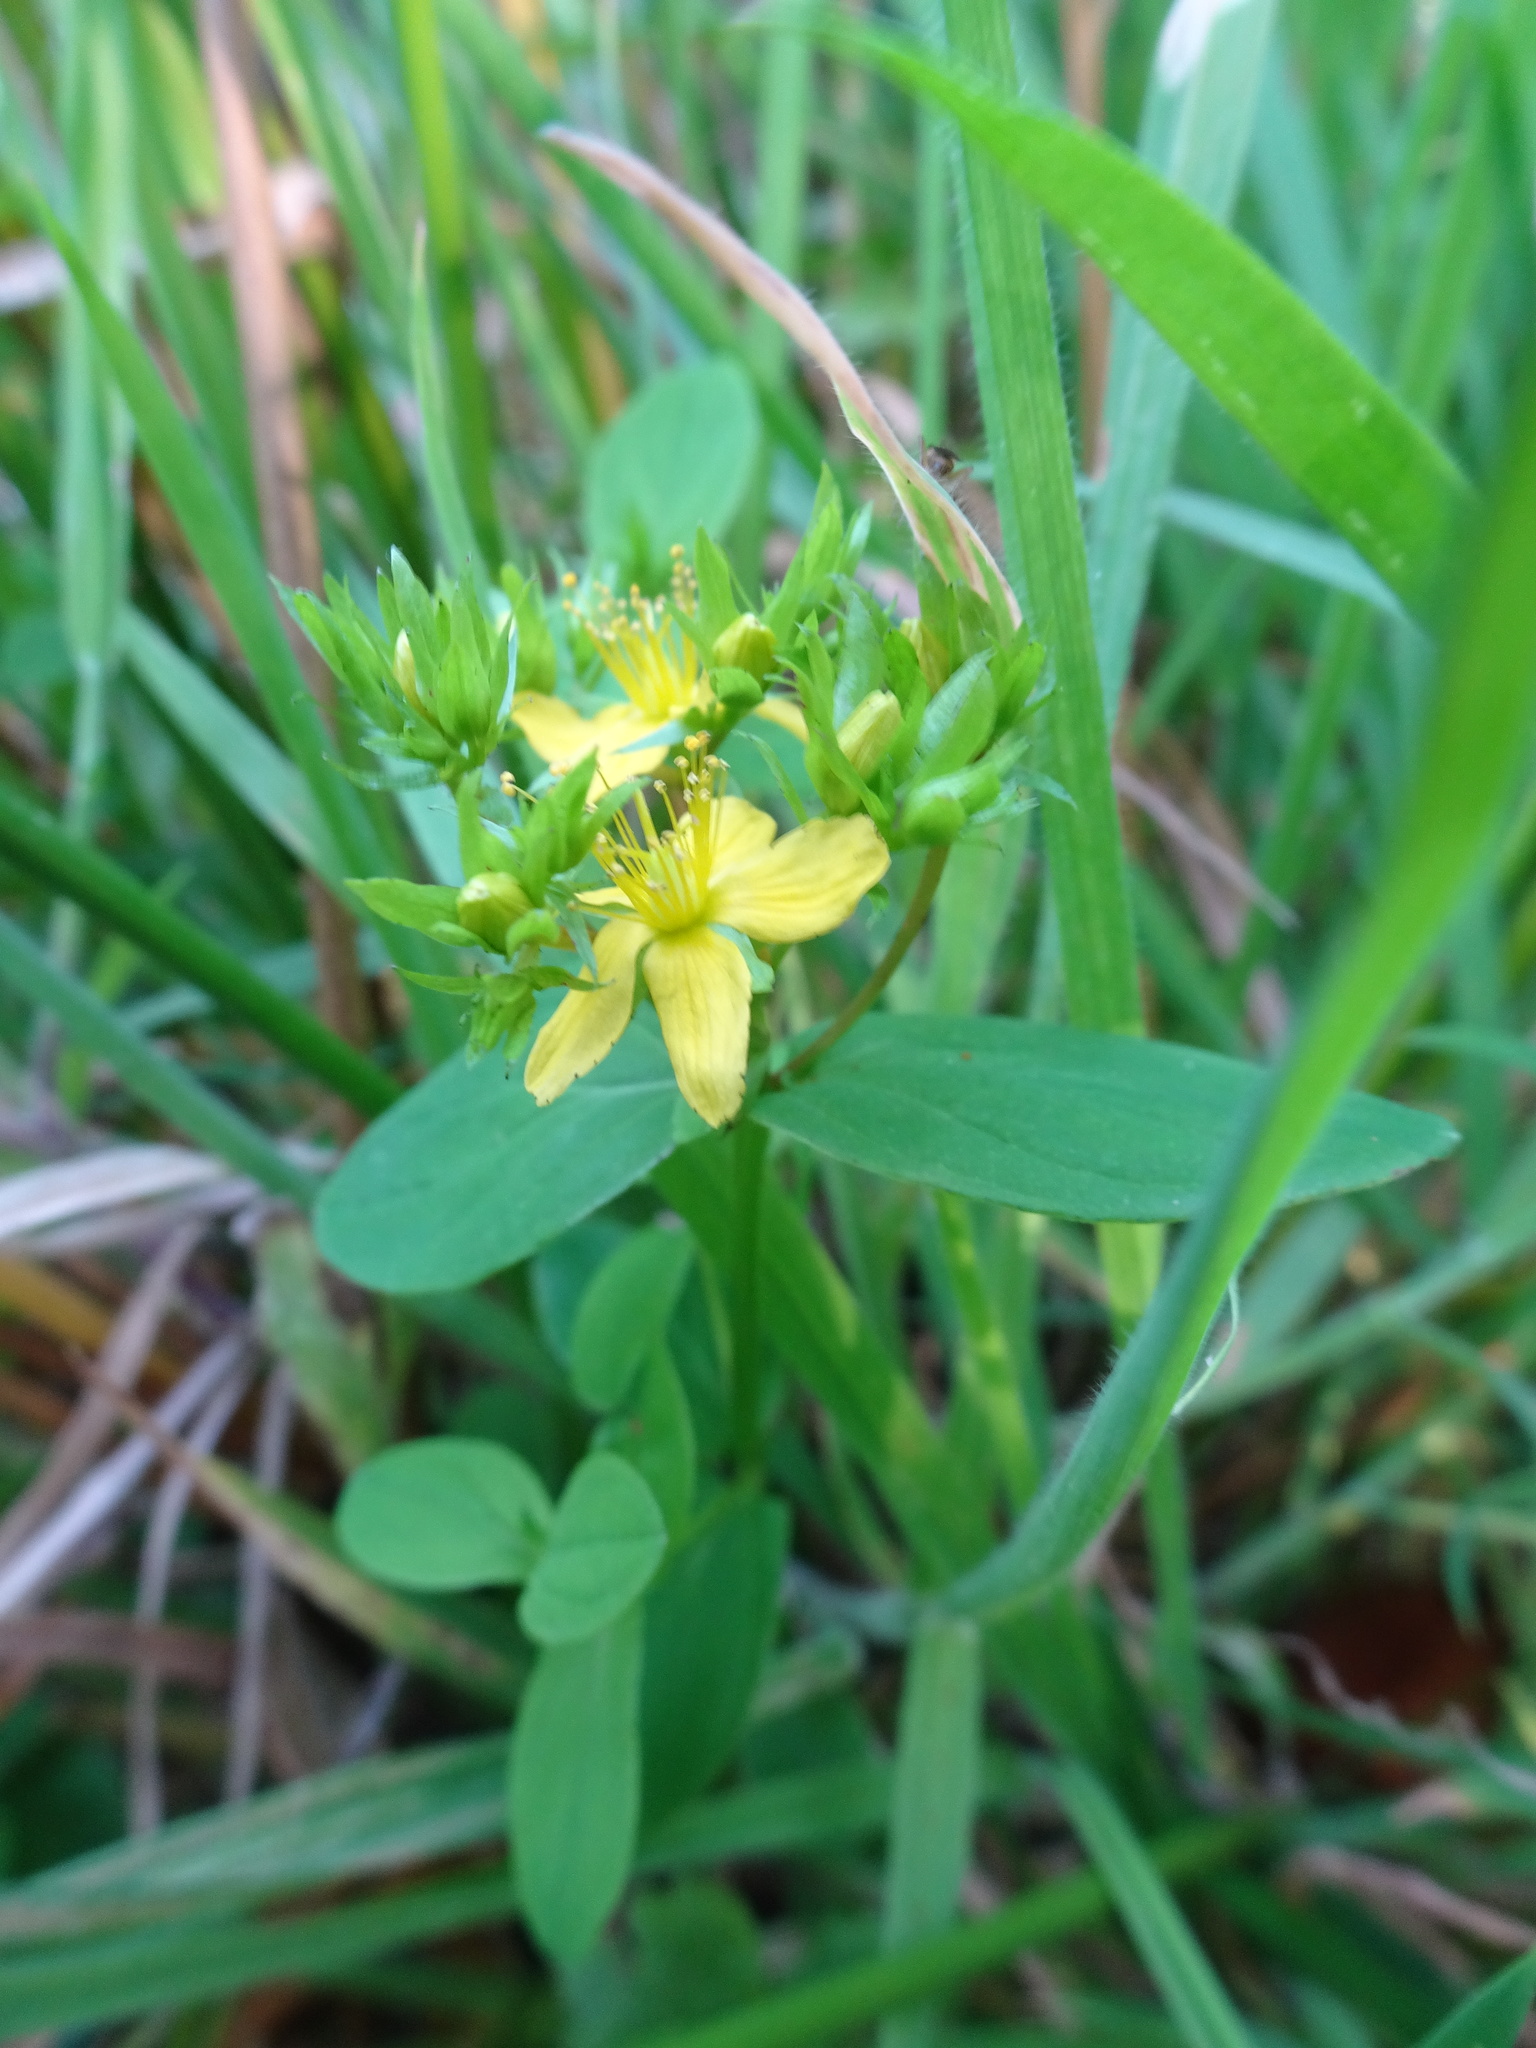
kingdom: Plantae
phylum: Tracheophyta
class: Magnoliopsida
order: Malpighiales
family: Hypericaceae
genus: Hypericum
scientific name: Hypericum tetrapterum
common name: Square-stalked st. john's-wort
